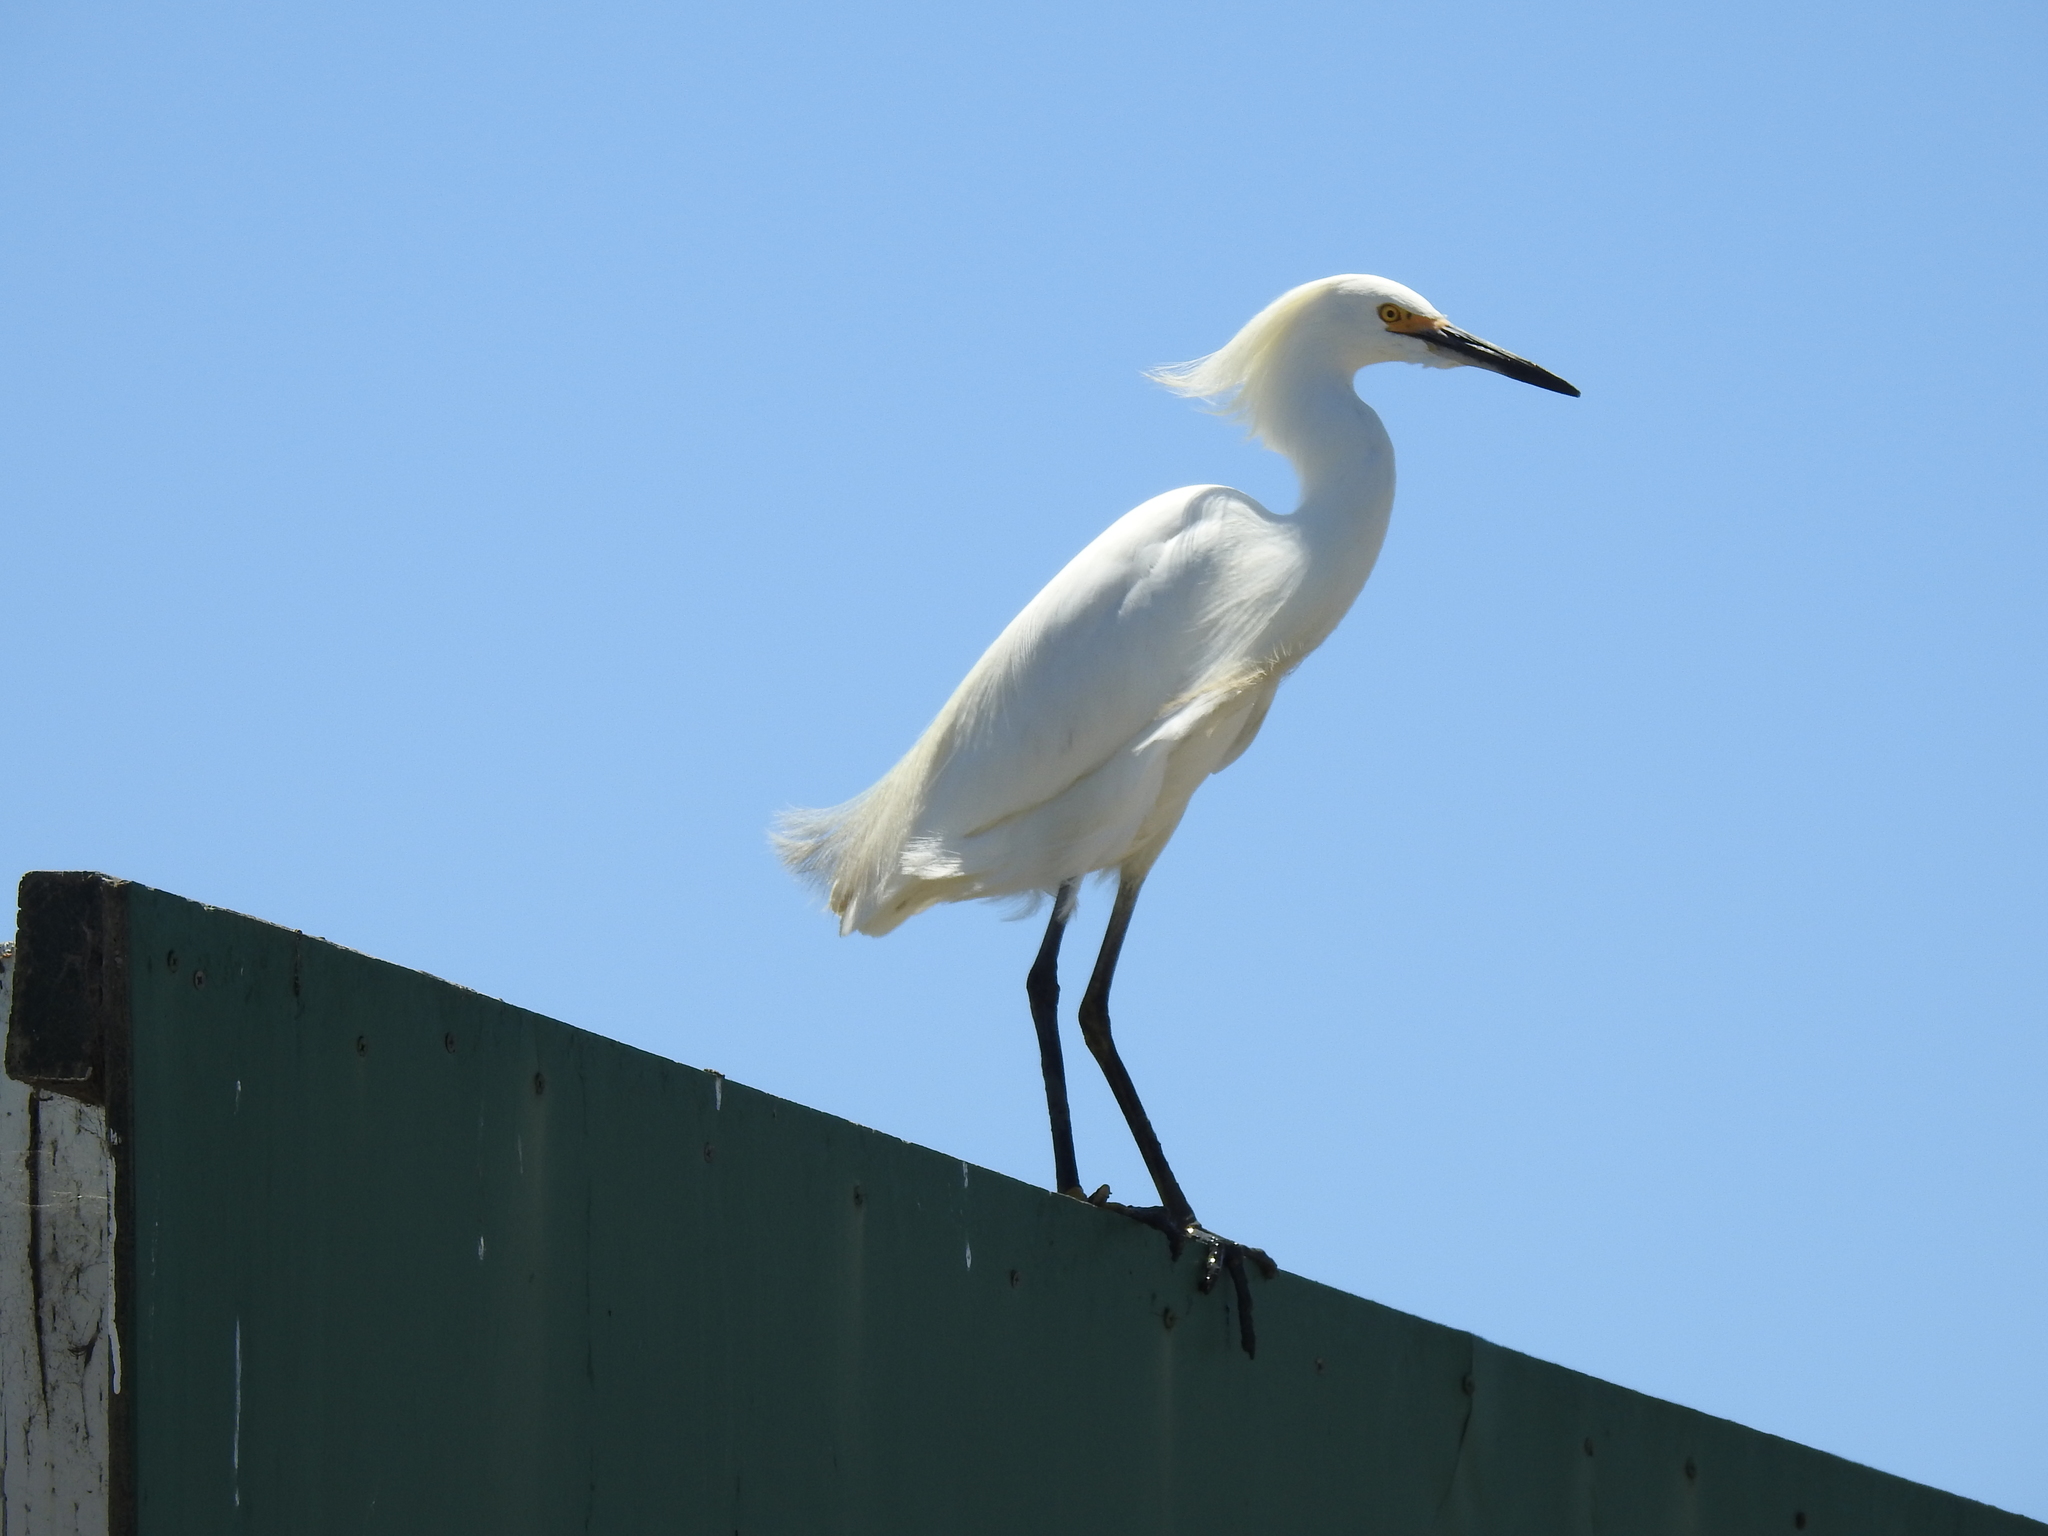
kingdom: Animalia
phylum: Chordata
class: Aves
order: Pelecaniformes
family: Ardeidae
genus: Egretta
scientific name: Egretta thula
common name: Snowy egret
